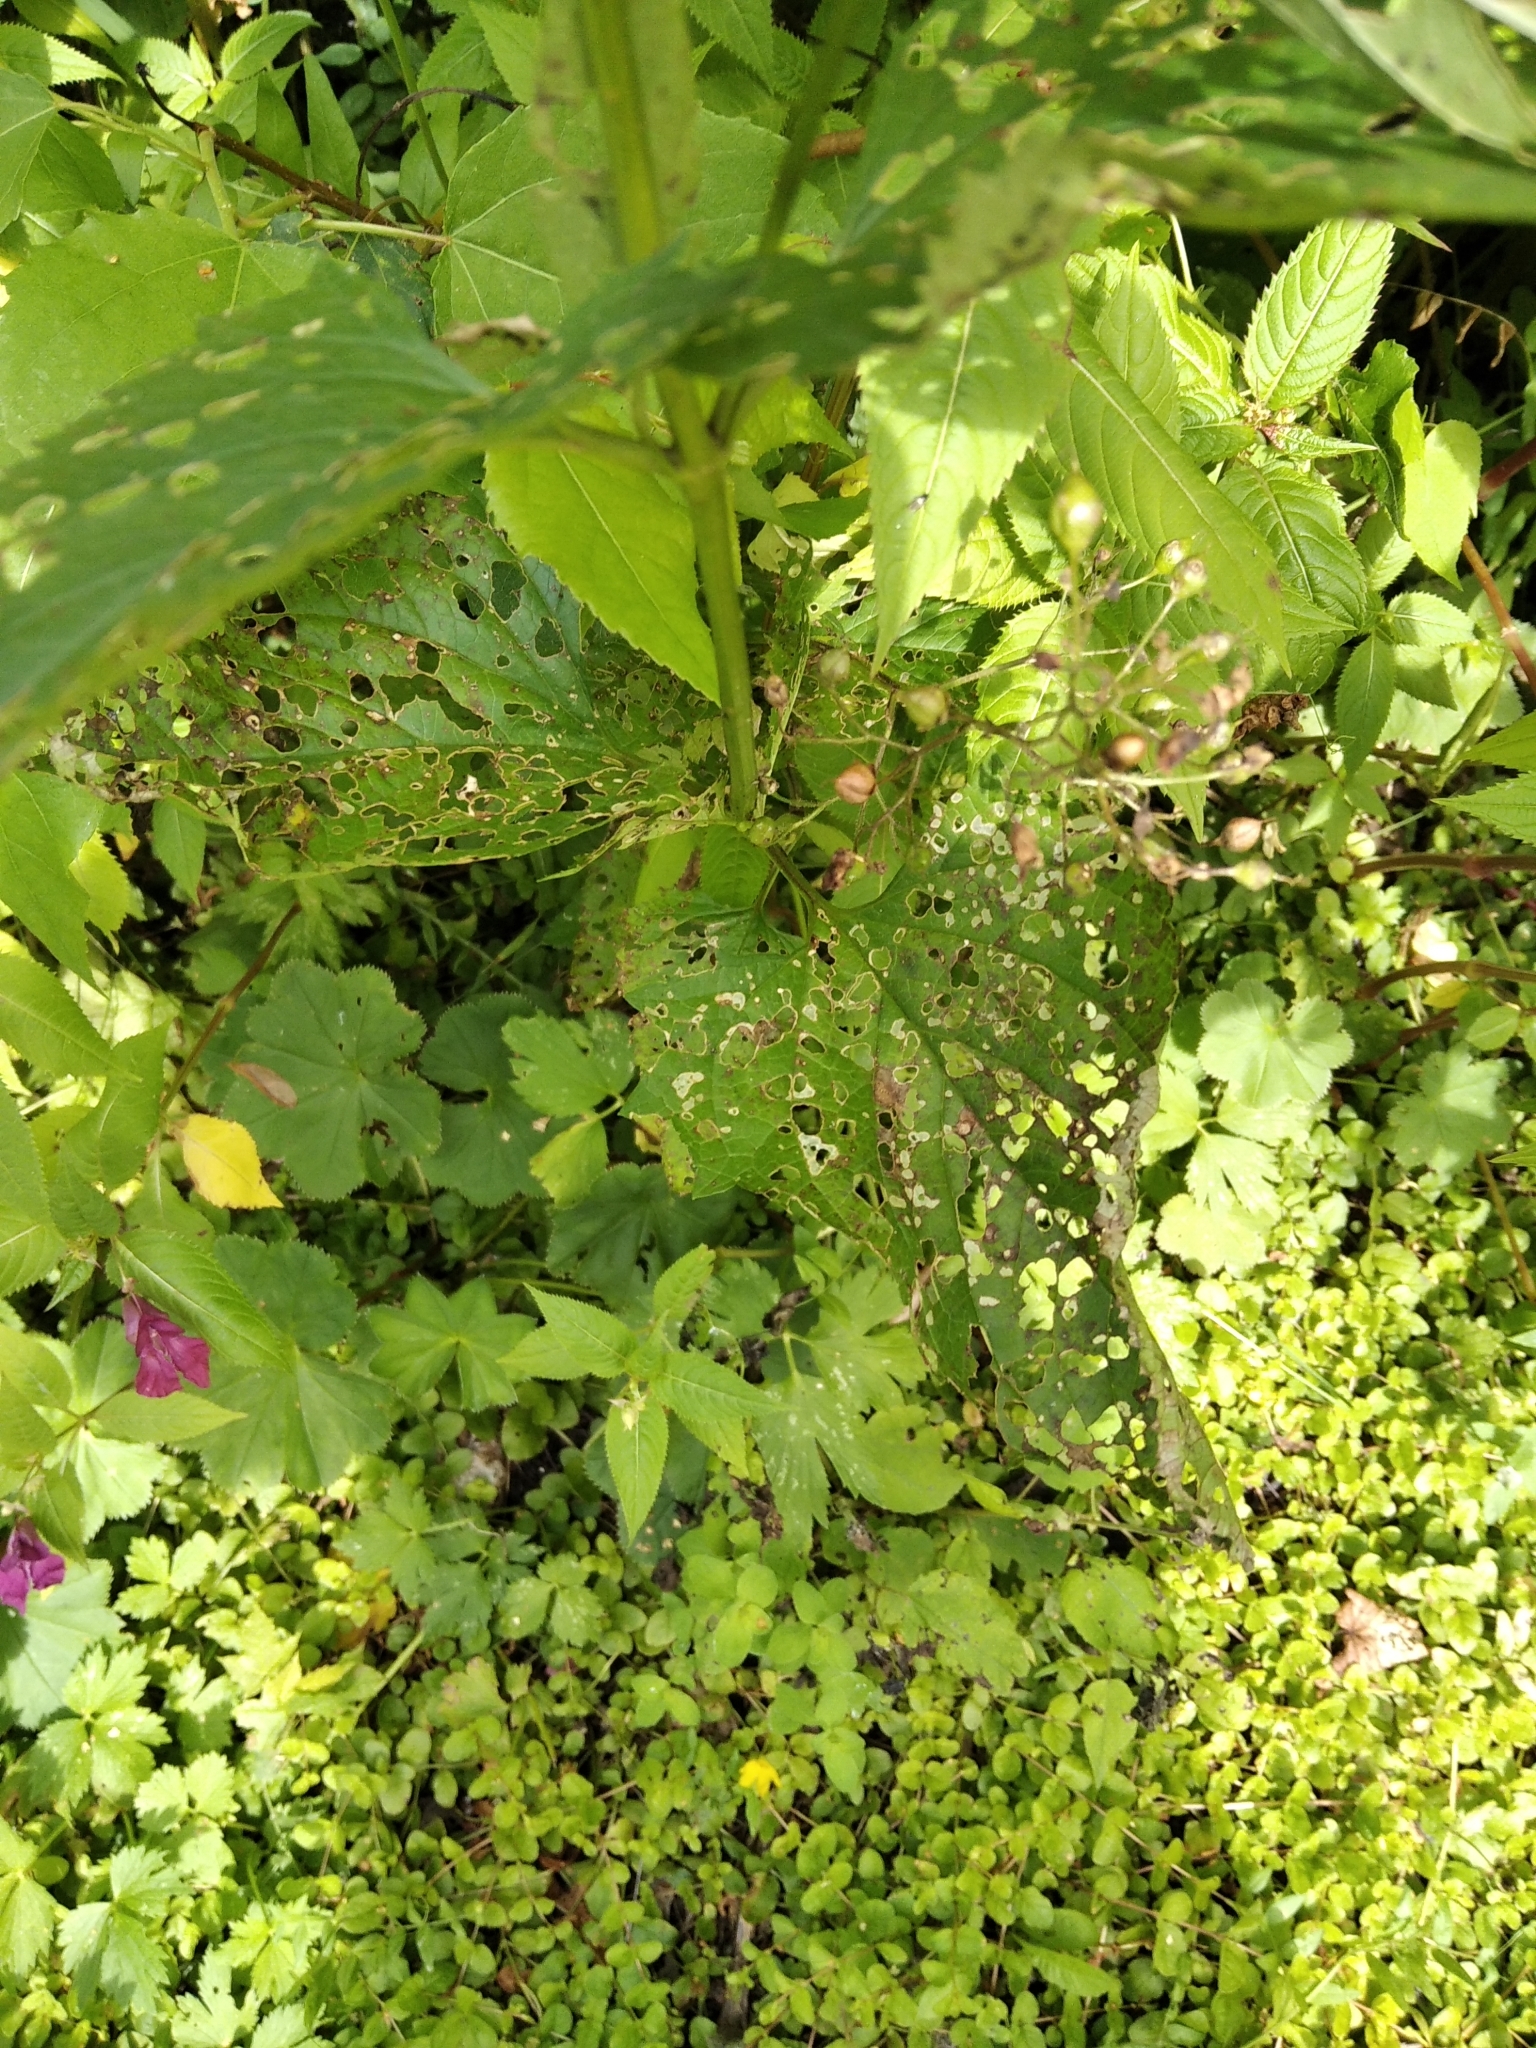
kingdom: Plantae
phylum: Tracheophyta
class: Magnoliopsida
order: Lamiales
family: Scrophulariaceae
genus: Scrophularia
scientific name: Scrophularia nodosa
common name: Common figwort
